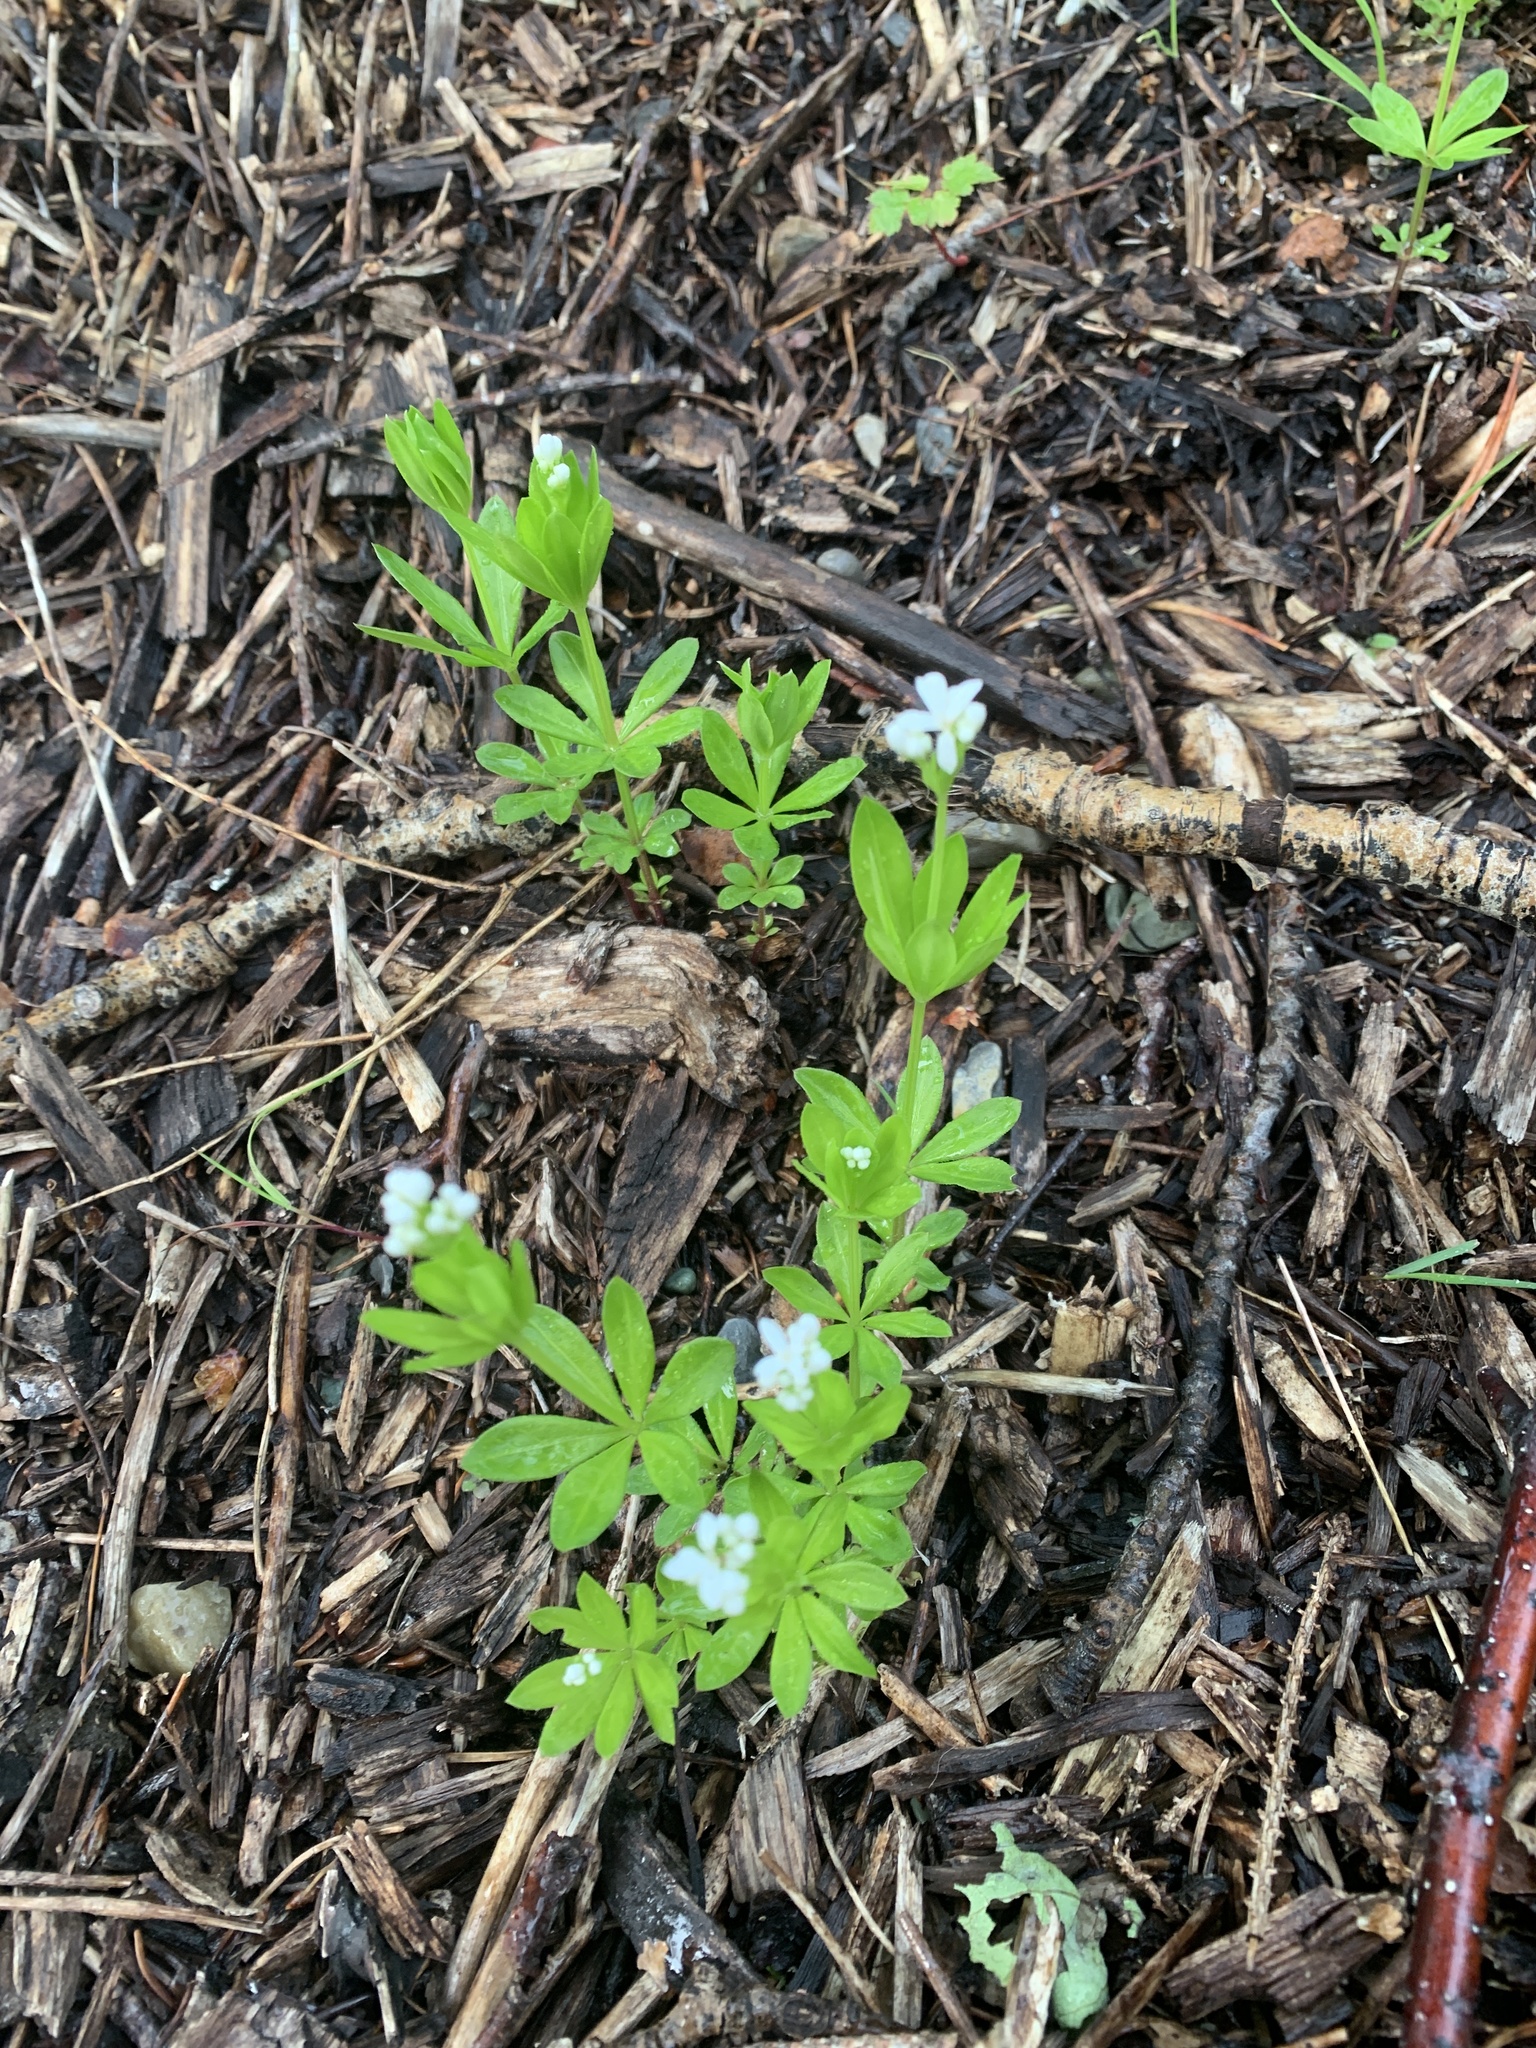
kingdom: Plantae
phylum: Tracheophyta
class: Magnoliopsida
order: Gentianales
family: Rubiaceae
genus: Galium
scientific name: Galium triflorum
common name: Fragrant bedstraw
